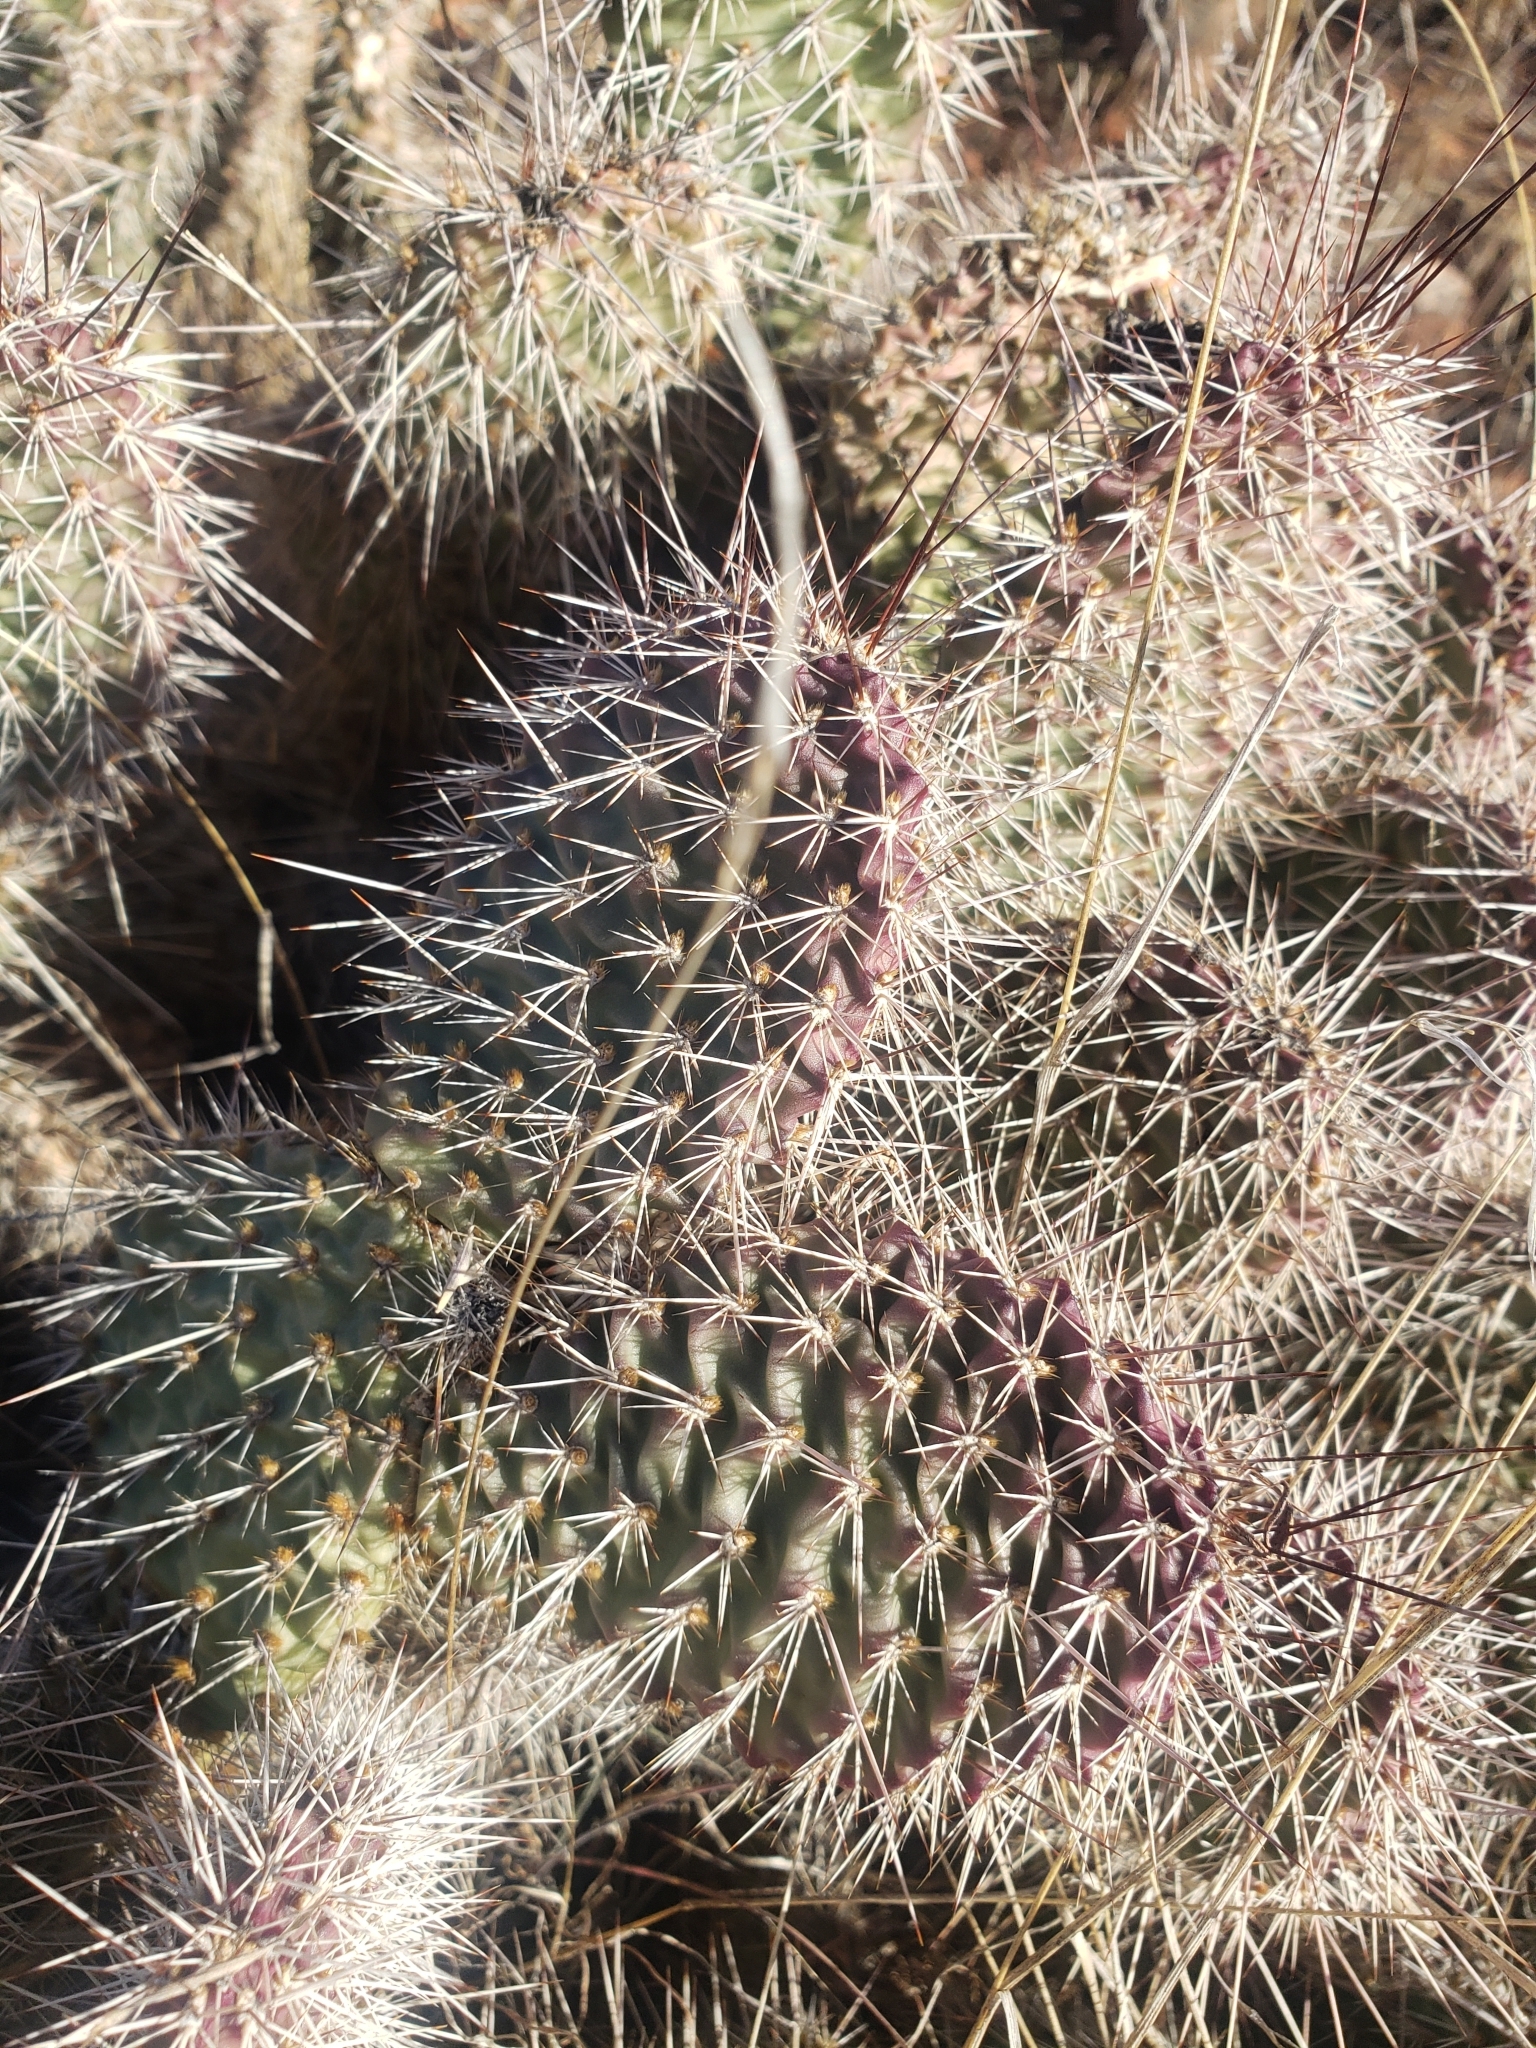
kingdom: Plantae
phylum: Tracheophyta
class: Magnoliopsida
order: Caryophyllales
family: Cactaceae
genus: Opuntia
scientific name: Opuntia polyacantha
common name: Plains prickly-pear
